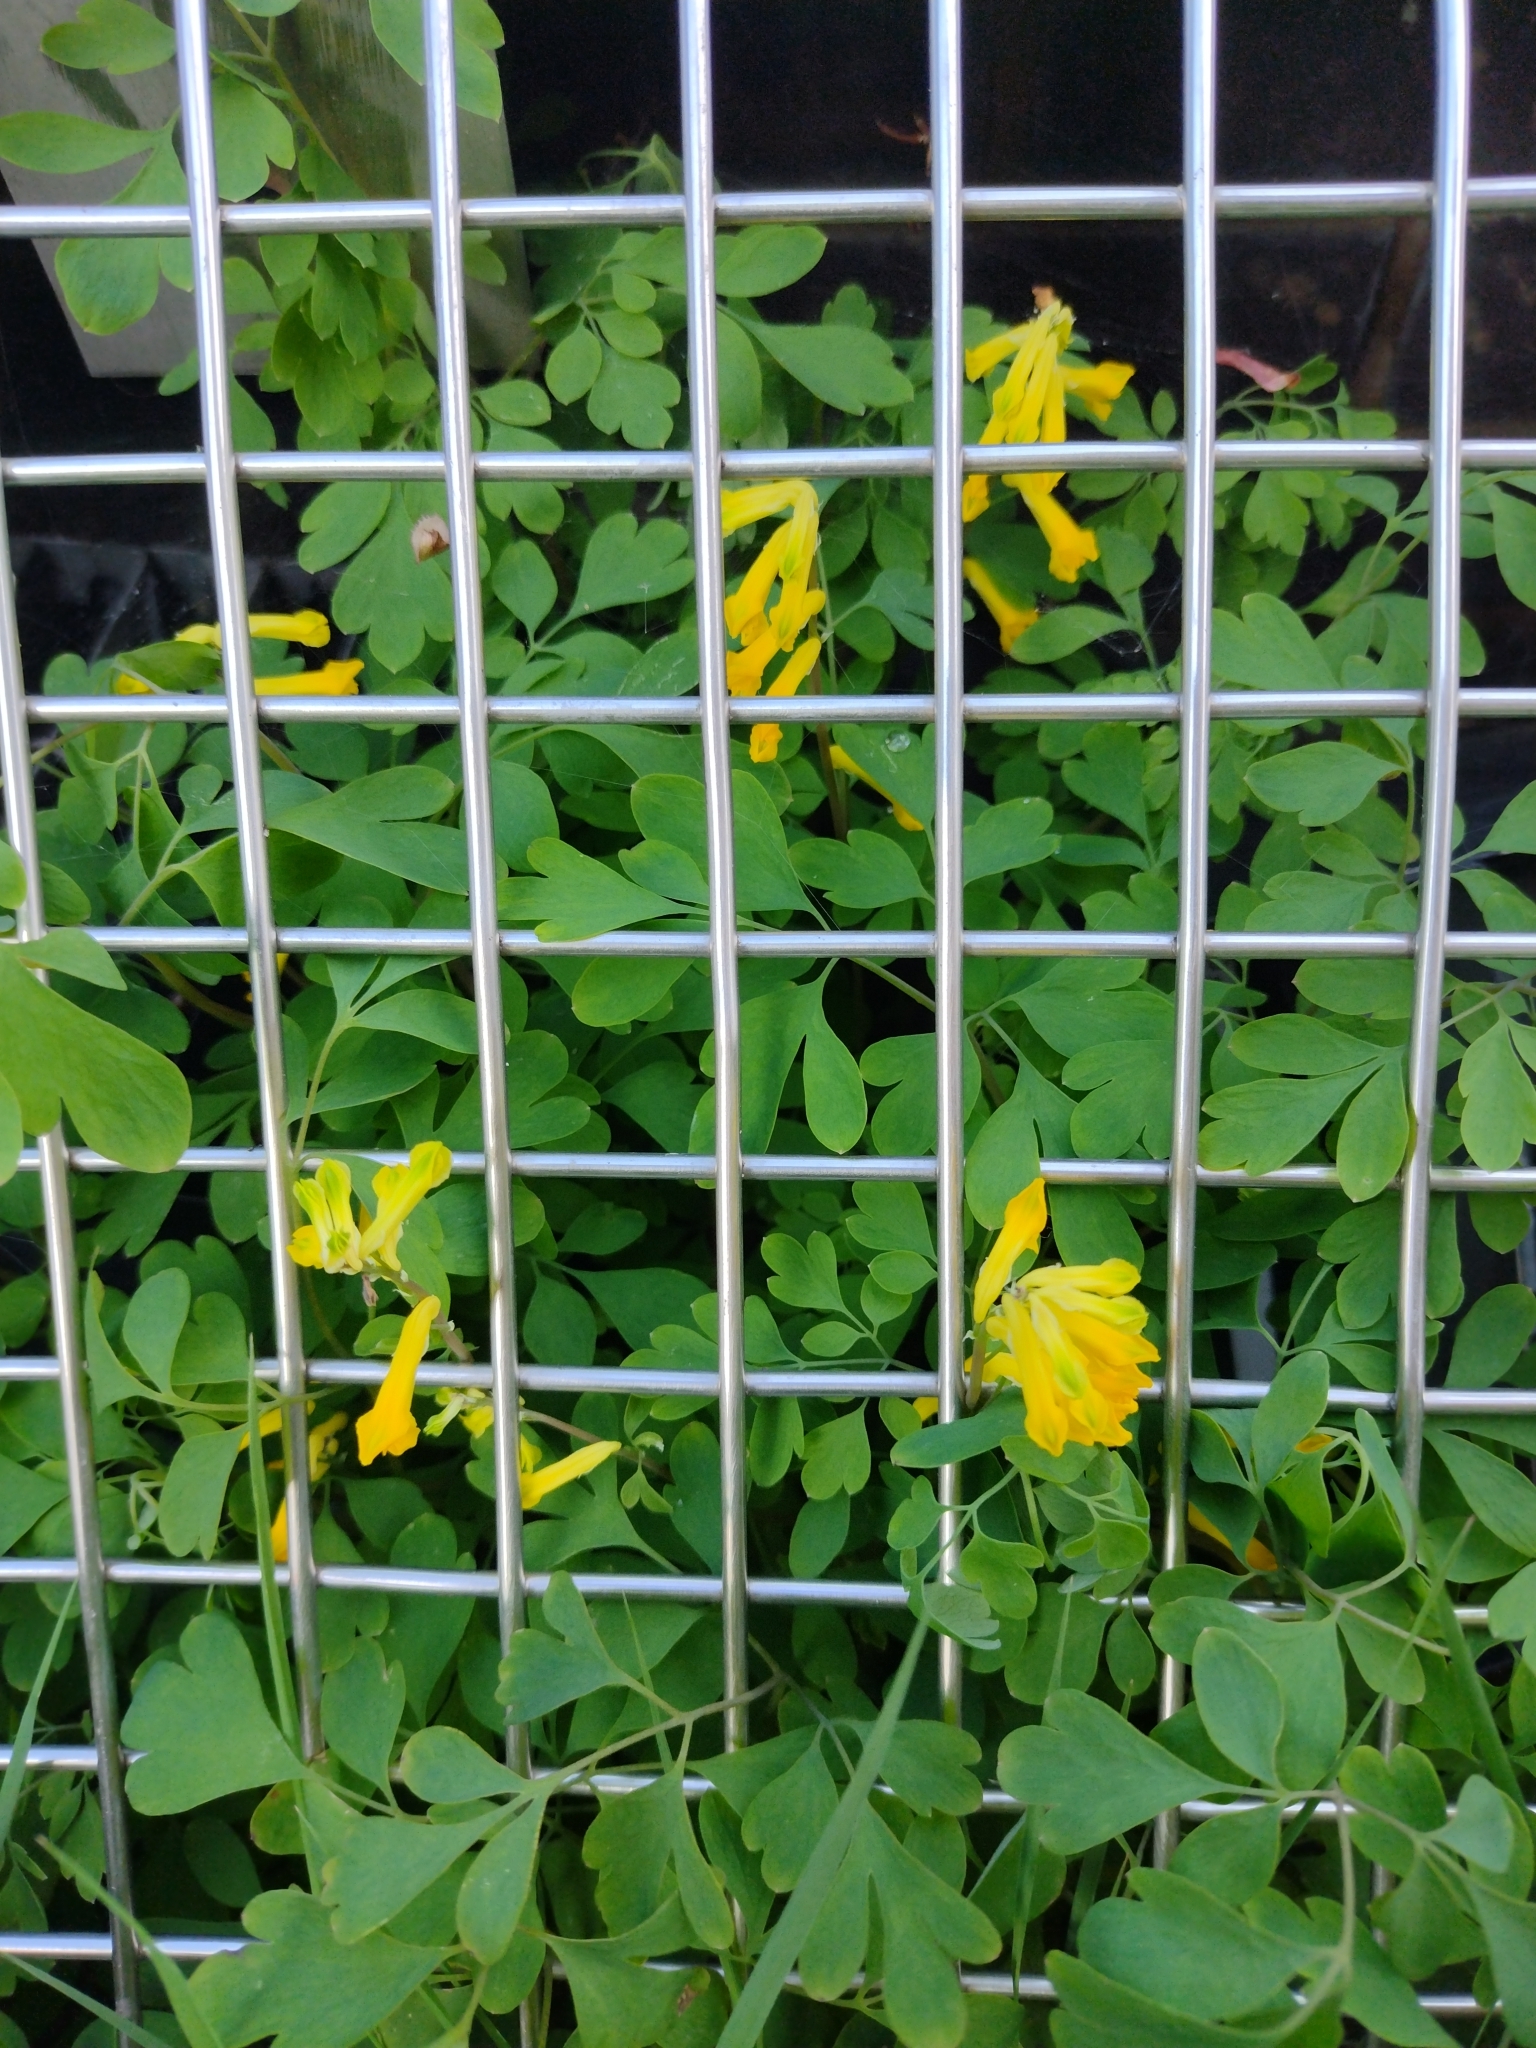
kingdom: Plantae
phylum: Tracheophyta
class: Magnoliopsida
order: Ranunculales
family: Papaveraceae
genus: Pseudofumaria
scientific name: Pseudofumaria lutea
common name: Yellow corydalis
